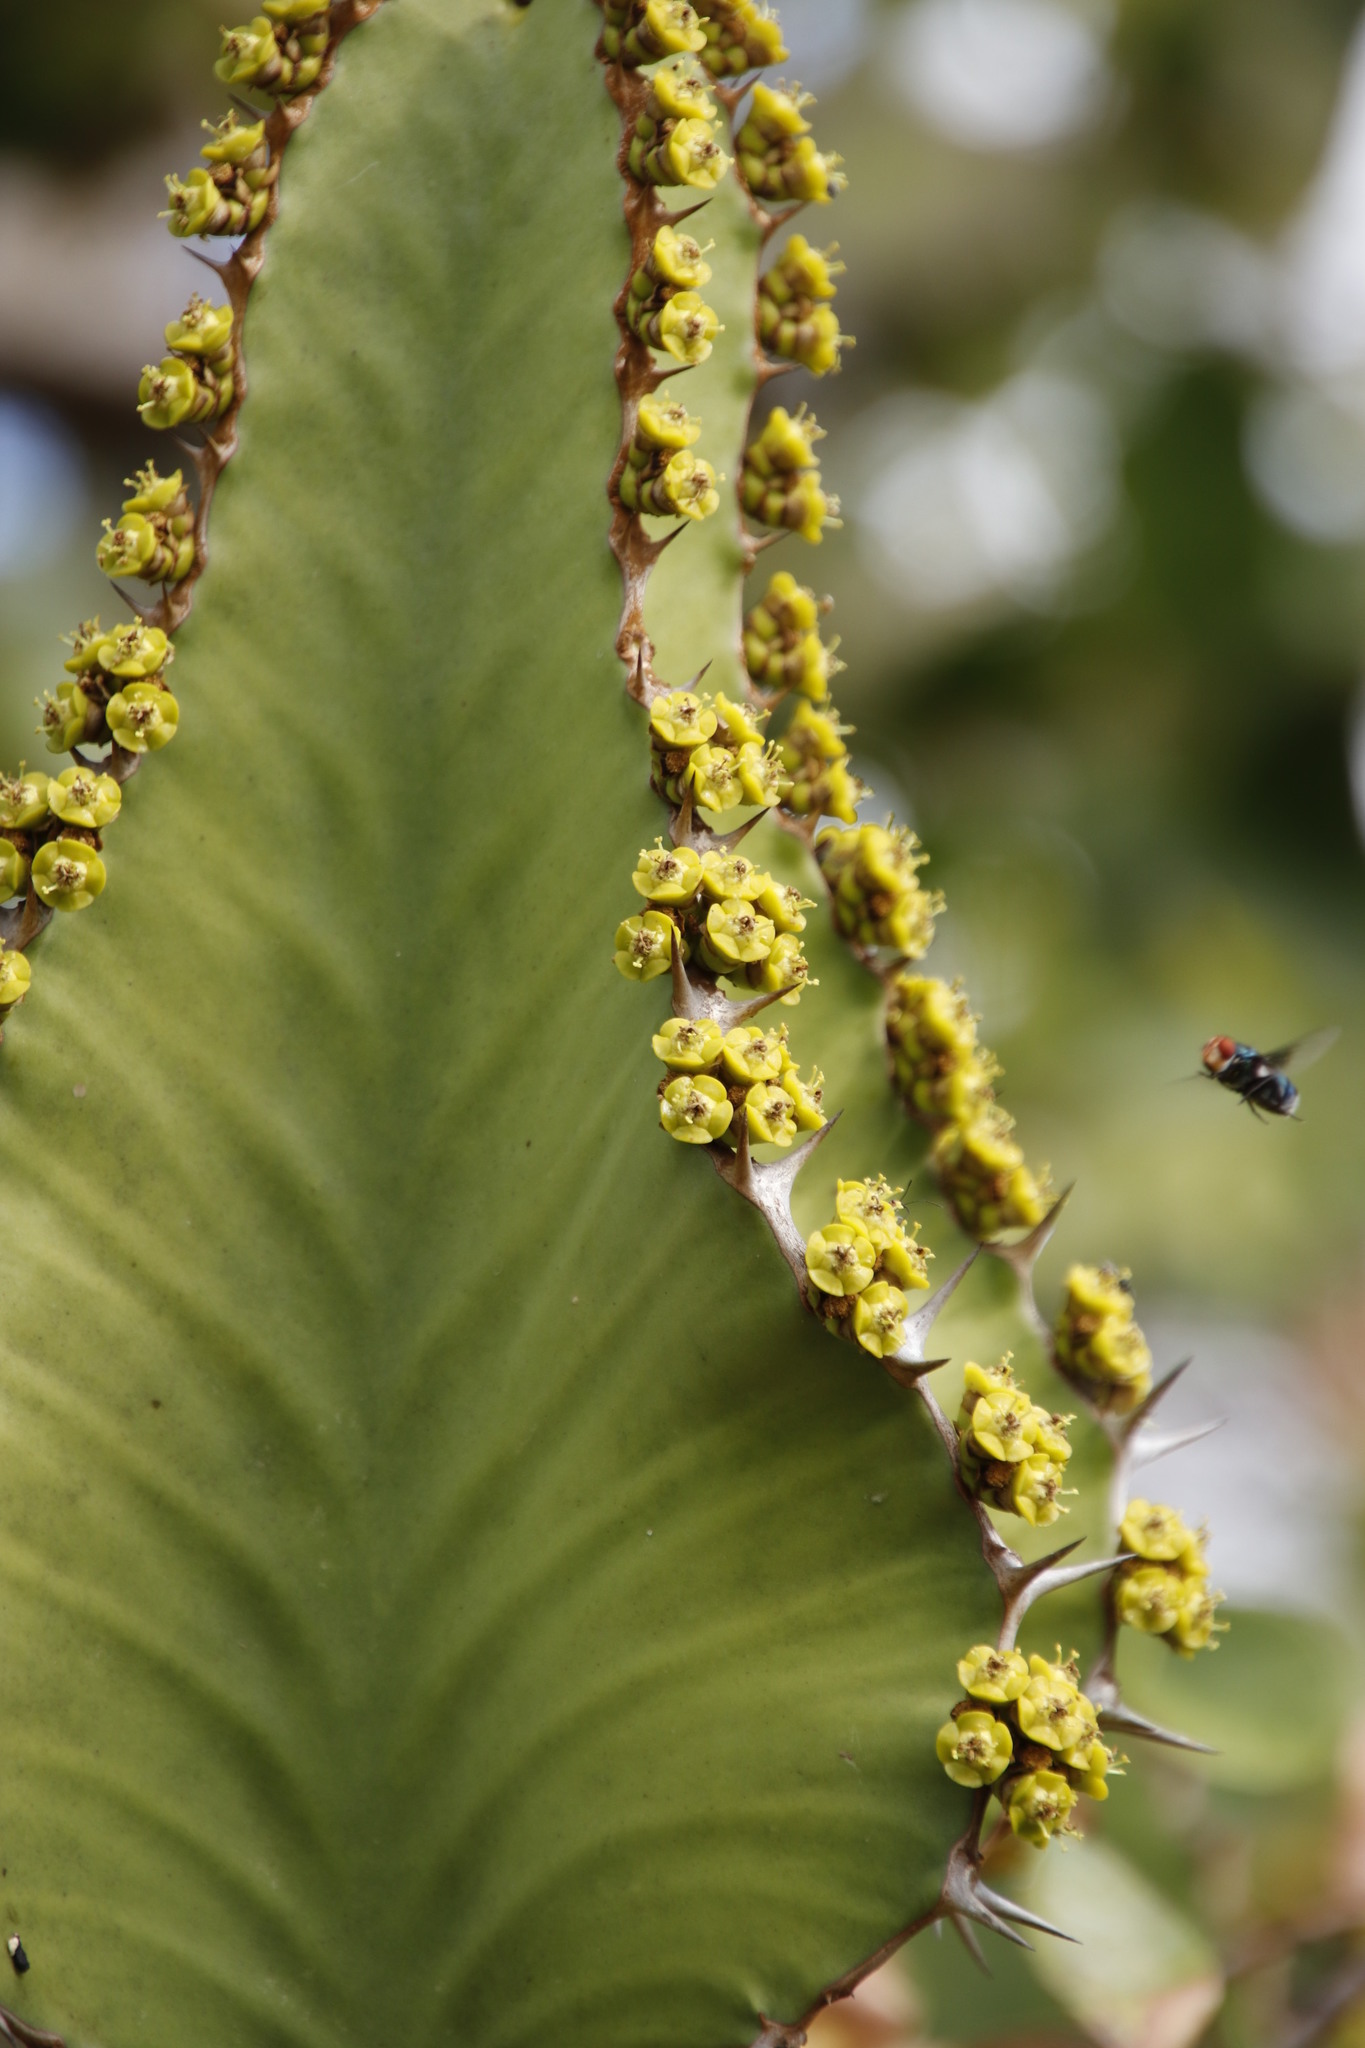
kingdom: Plantae
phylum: Tracheophyta
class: Magnoliopsida
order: Malpighiales
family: Euphorbiaceae
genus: Euphorbia
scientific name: Euphorbia cooperi
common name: Candelabra tree
